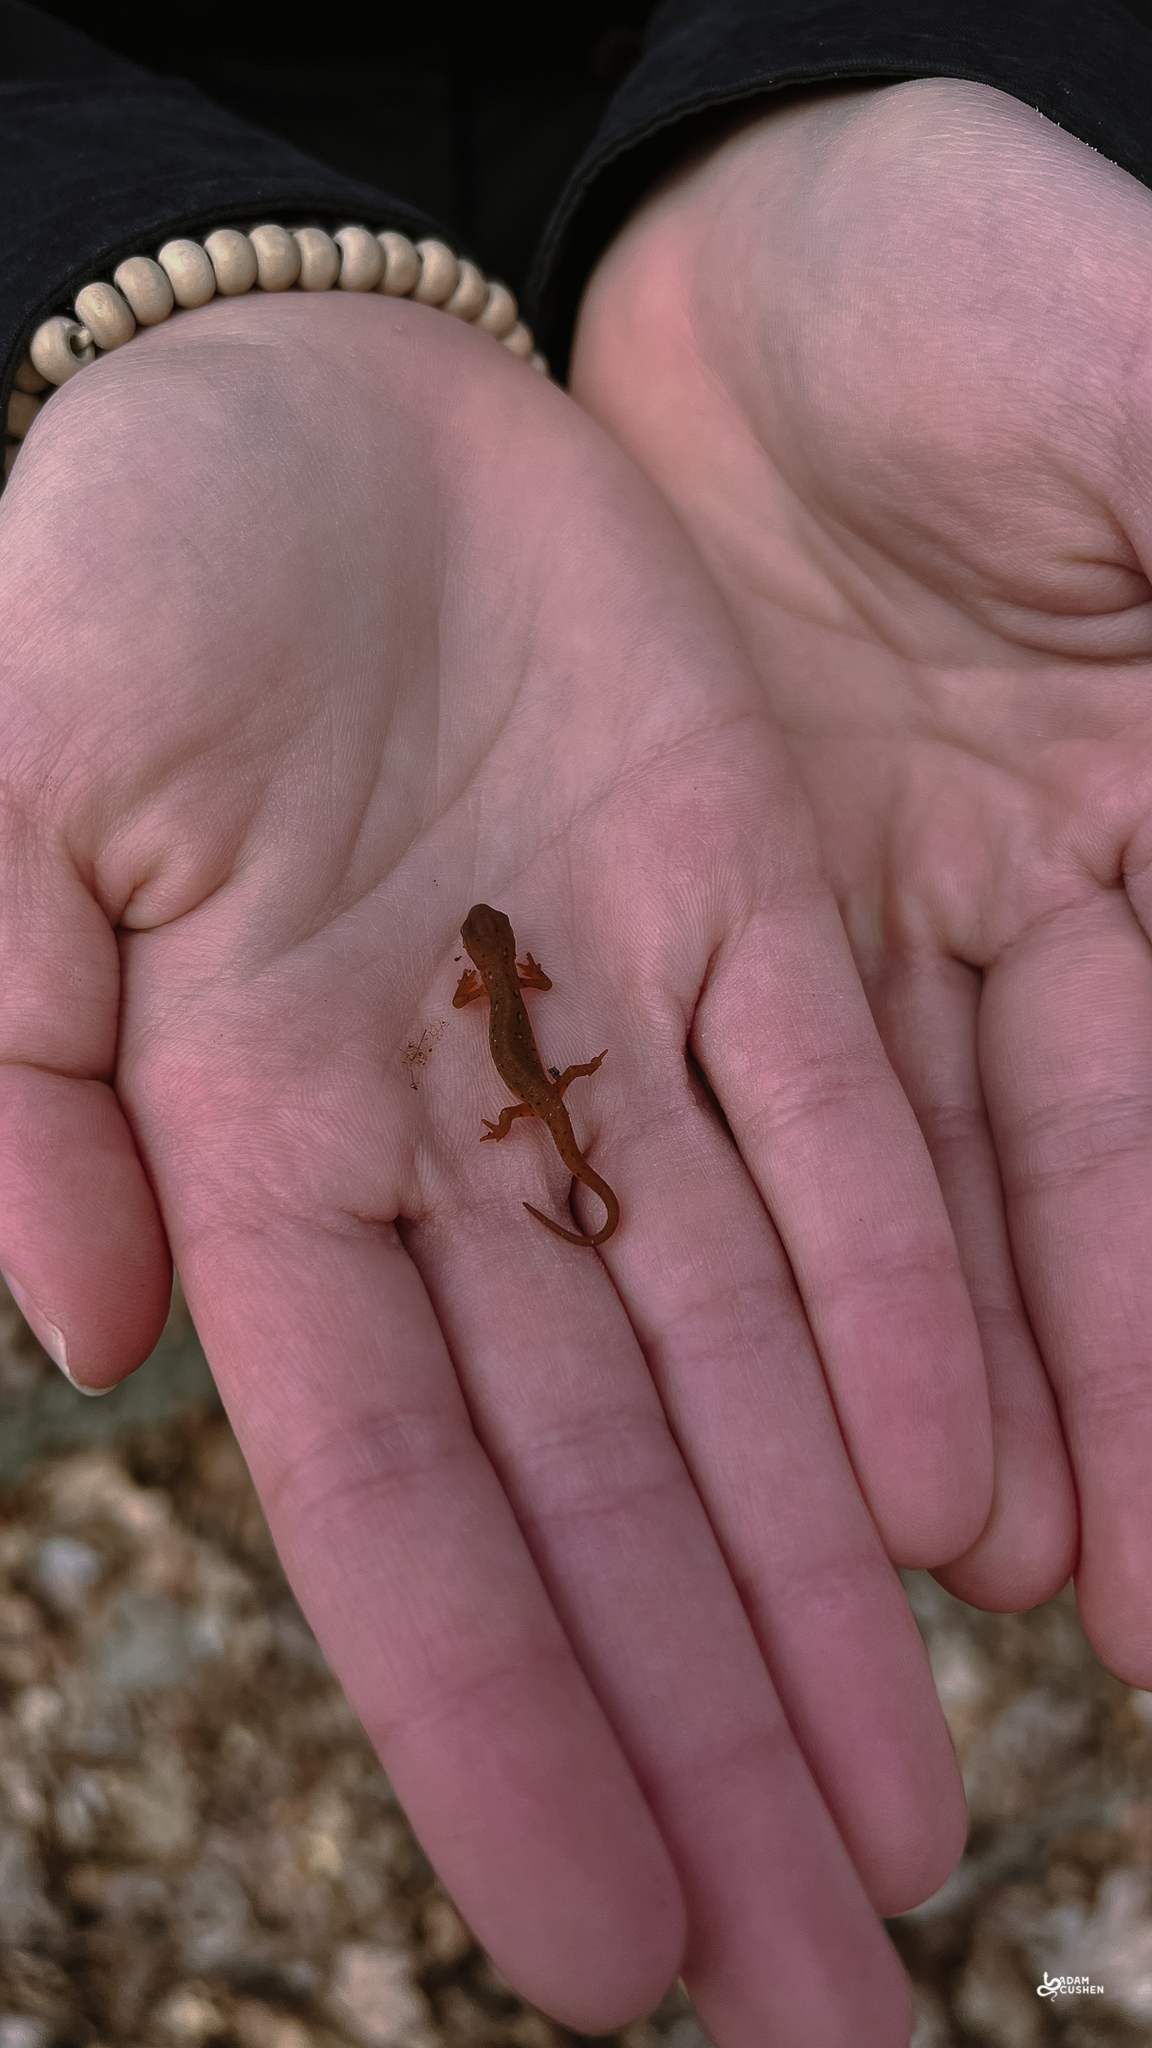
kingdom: Animalia
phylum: Chordata
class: Amphibia
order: Caudata
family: Salamandridae
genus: Notophthalmus
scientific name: Notophthalmus viridescens
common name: Eastern newt
